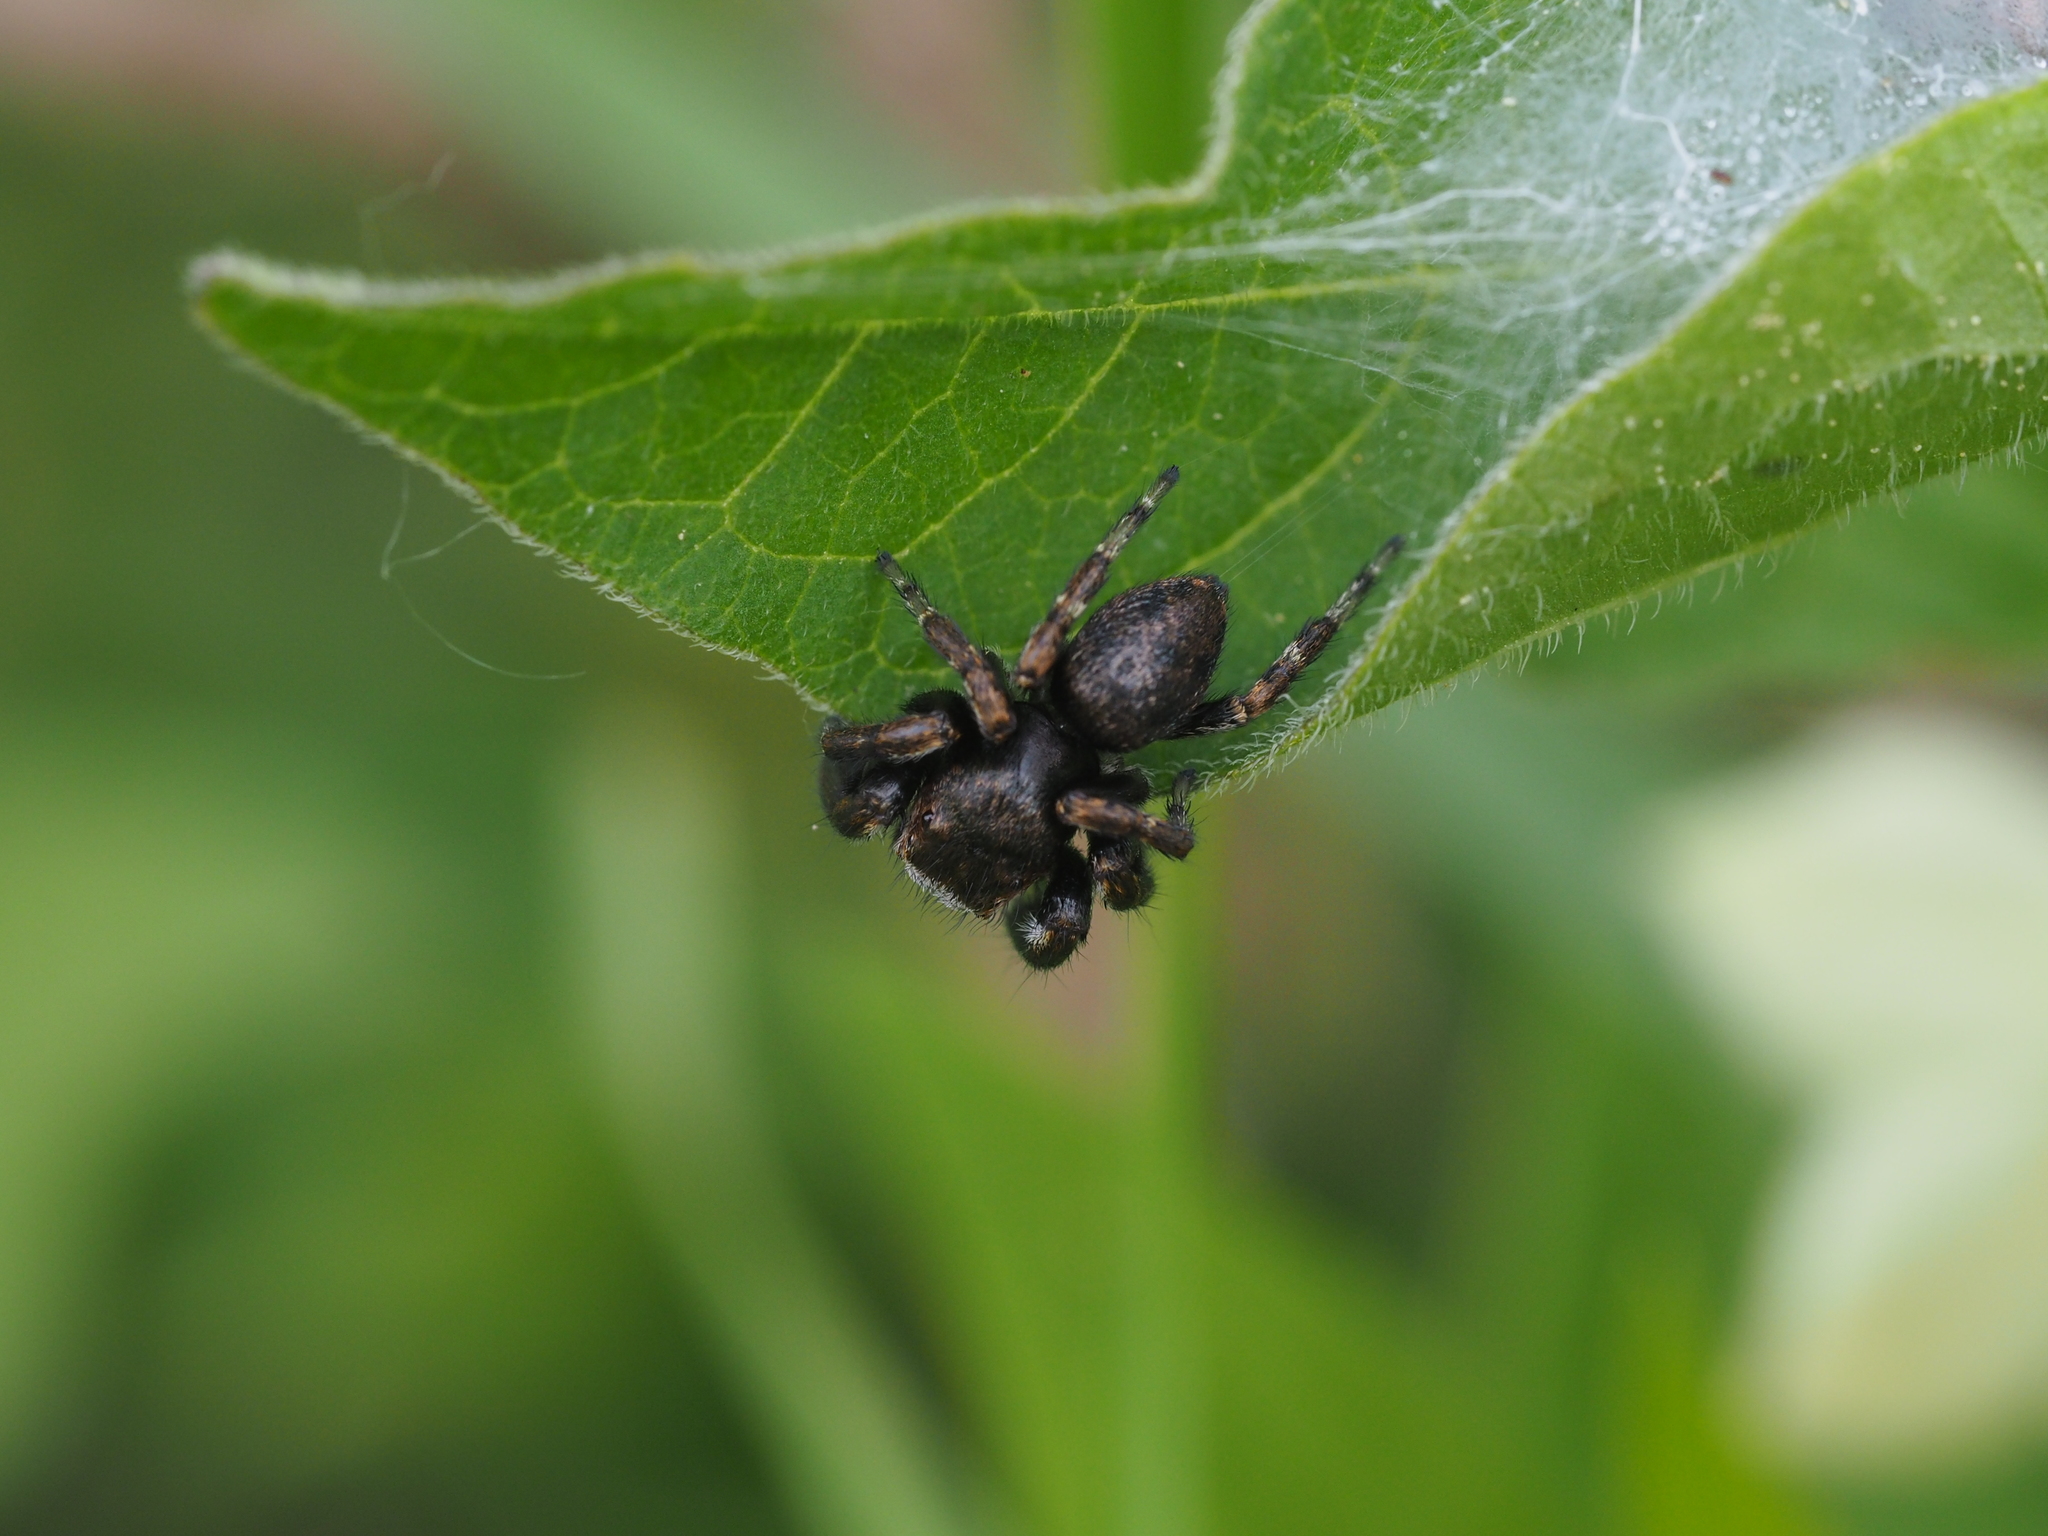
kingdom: Animalia
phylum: Arthropoda
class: Arachnida
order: Araneae
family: Salticidae
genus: Evarcha
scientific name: Evarcha arcuata
